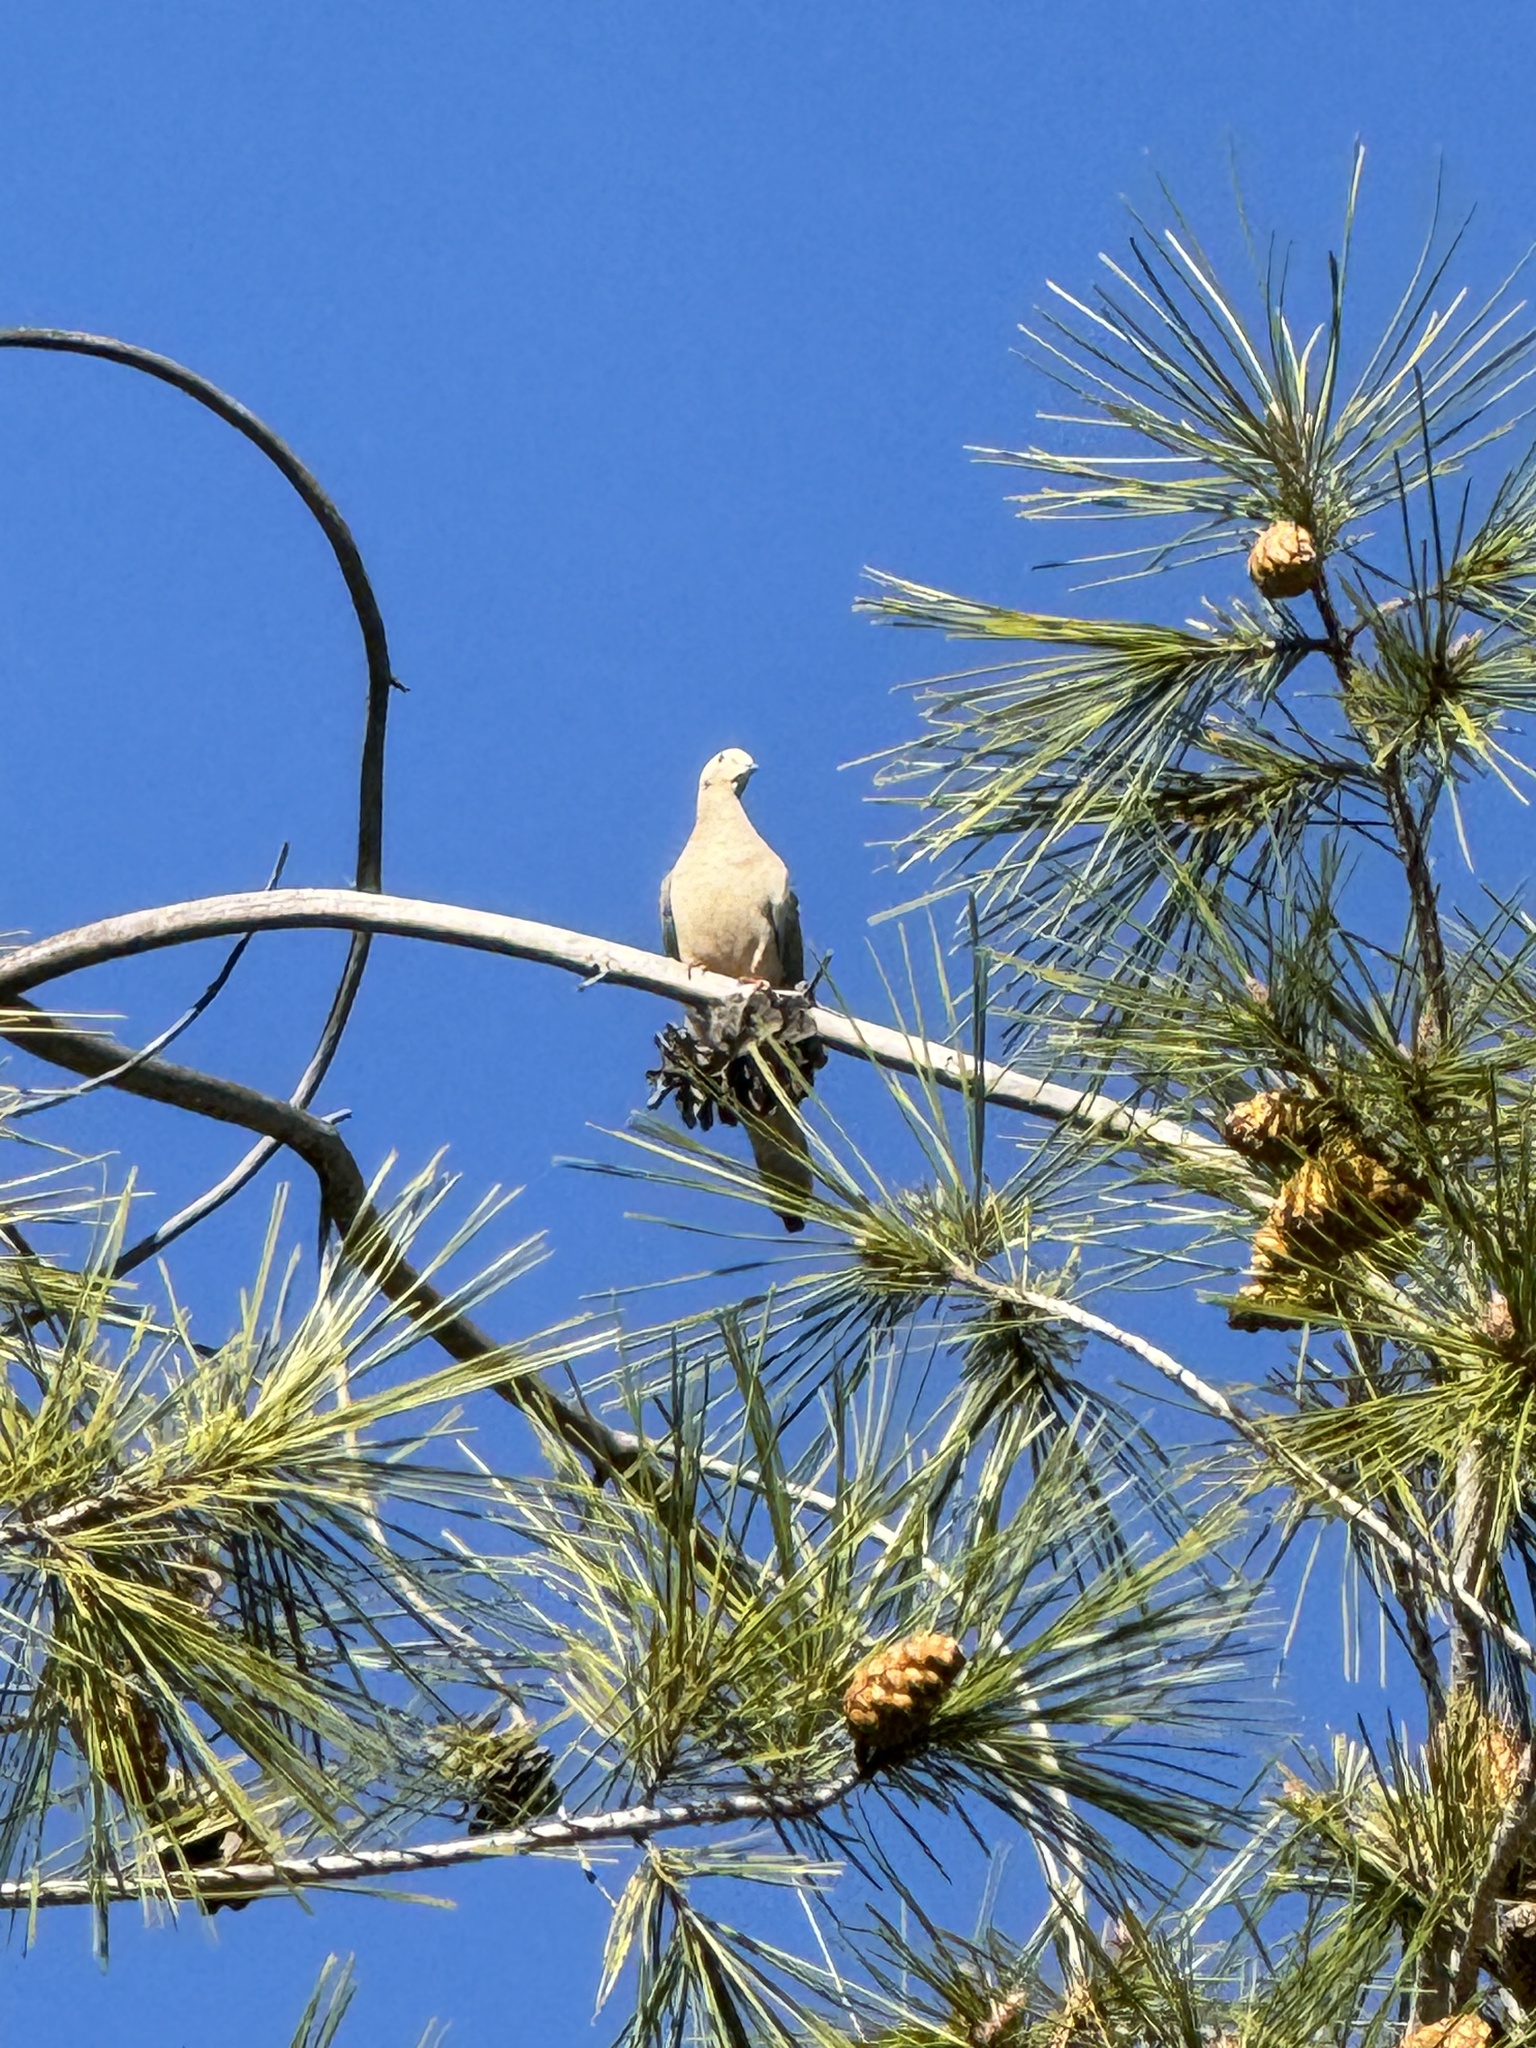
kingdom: Animalia
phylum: Chordata
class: Aves
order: Columbiformes
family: Columbidae
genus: Zenaida
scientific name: Zenaida macroura
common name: Mourning dove
